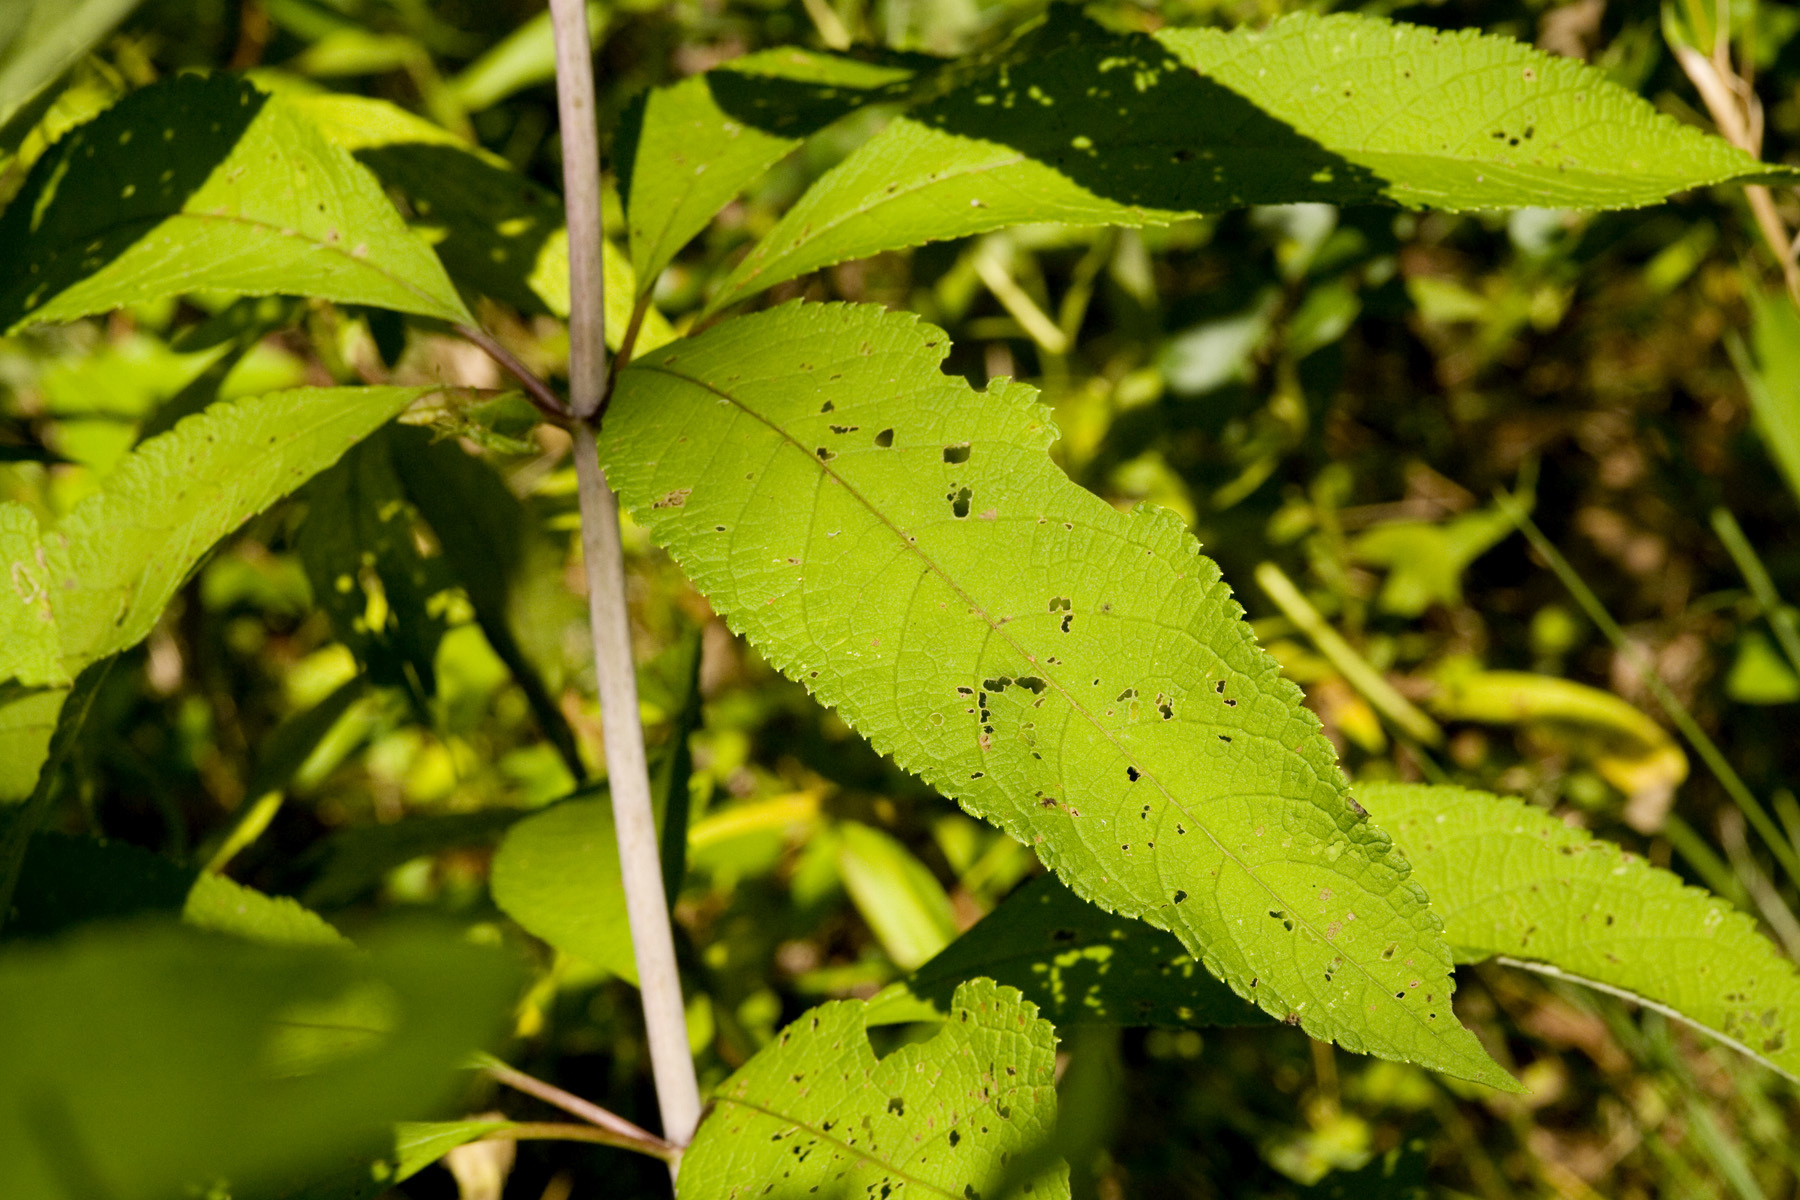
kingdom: Plantae
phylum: Tracheophyta
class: Magnoliopsida
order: Asterales
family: Asteraceae
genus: Eutrochium
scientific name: Eutrochium fistulosum
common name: Trumpetweed
